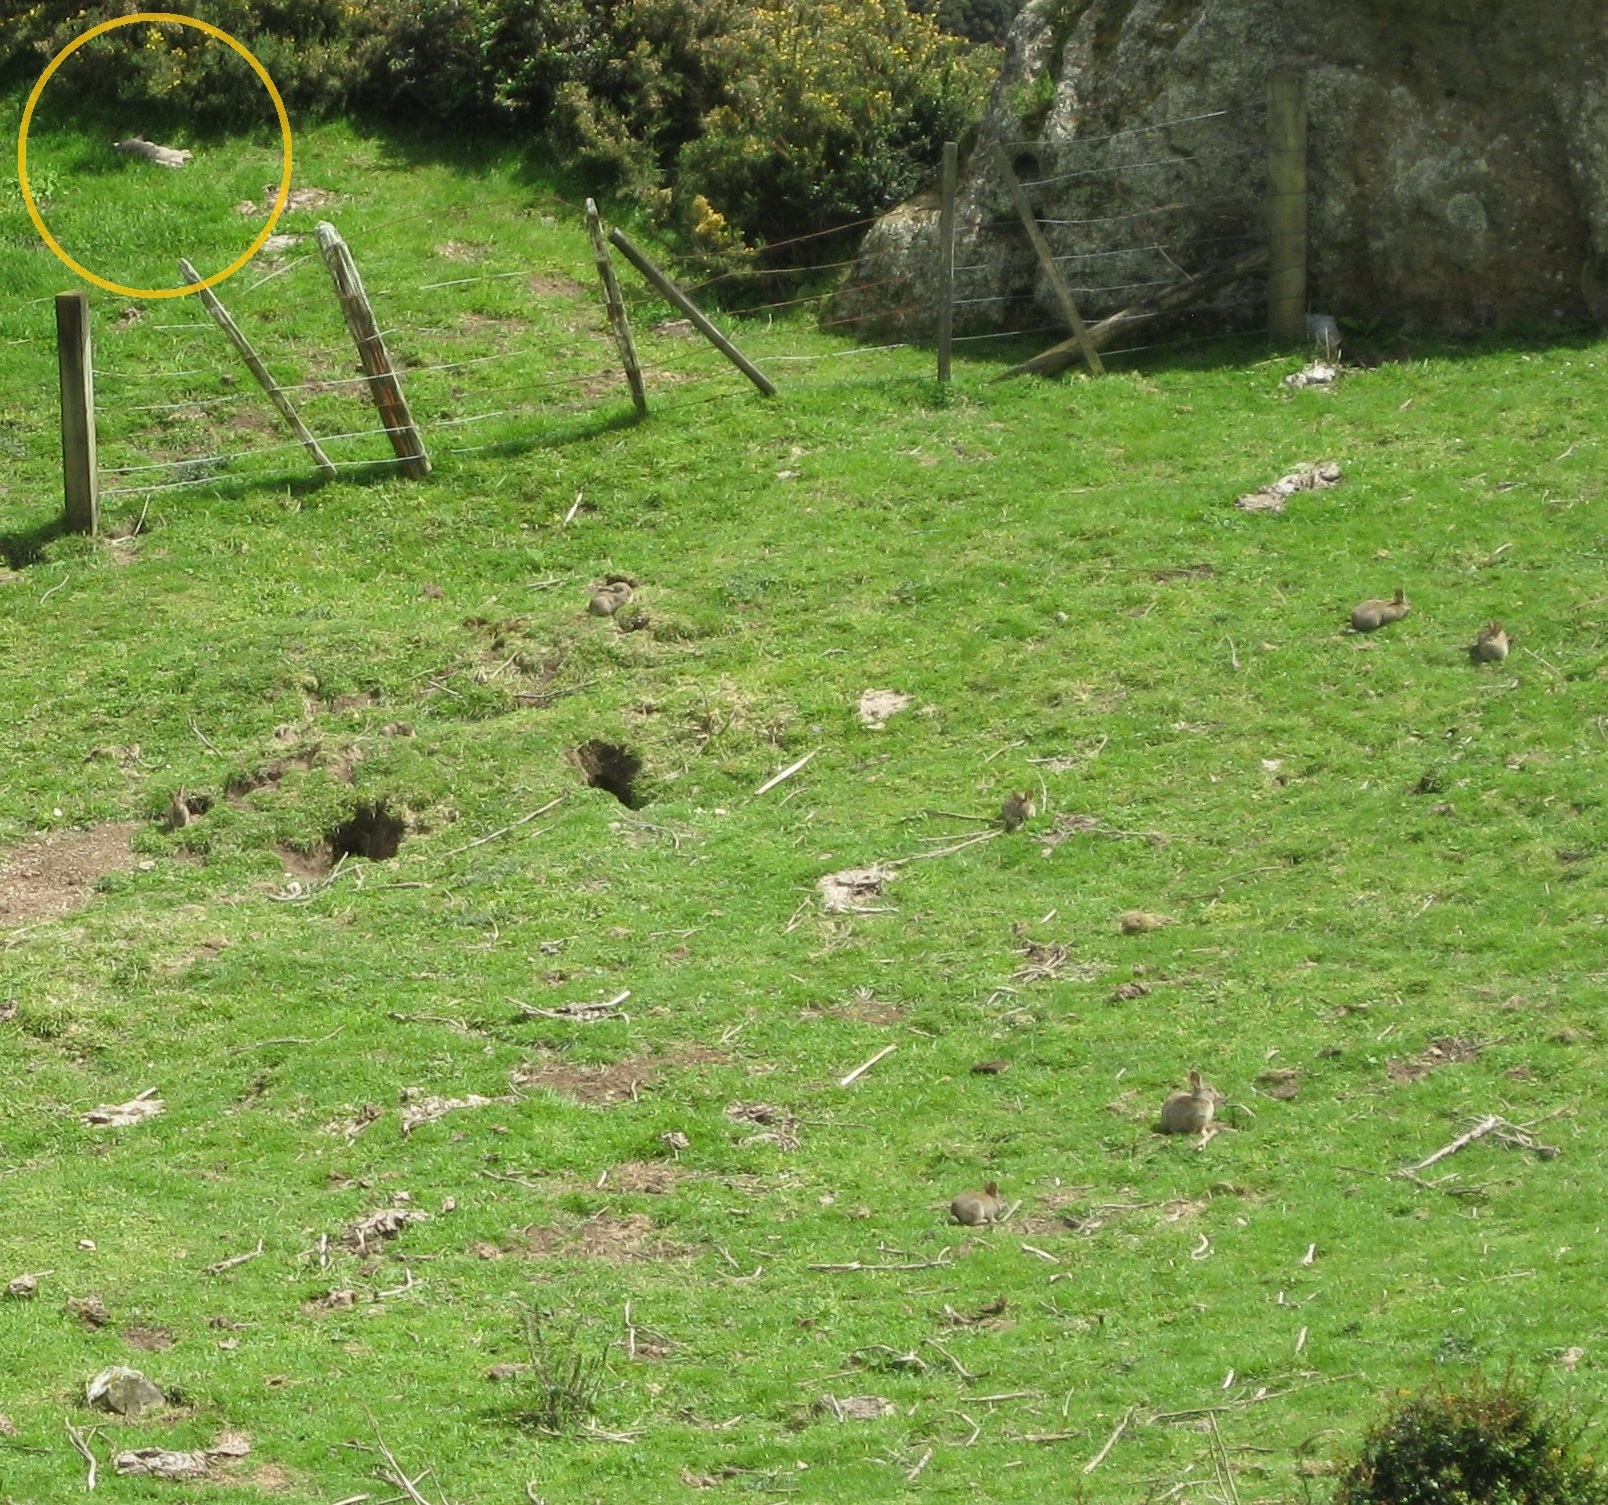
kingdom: Animalia
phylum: Chordata
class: Mammalia
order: Lagomorpha
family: Leporidae
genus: Oryctolagus
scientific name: Oryctolagus cuniculus
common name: European rabbit
